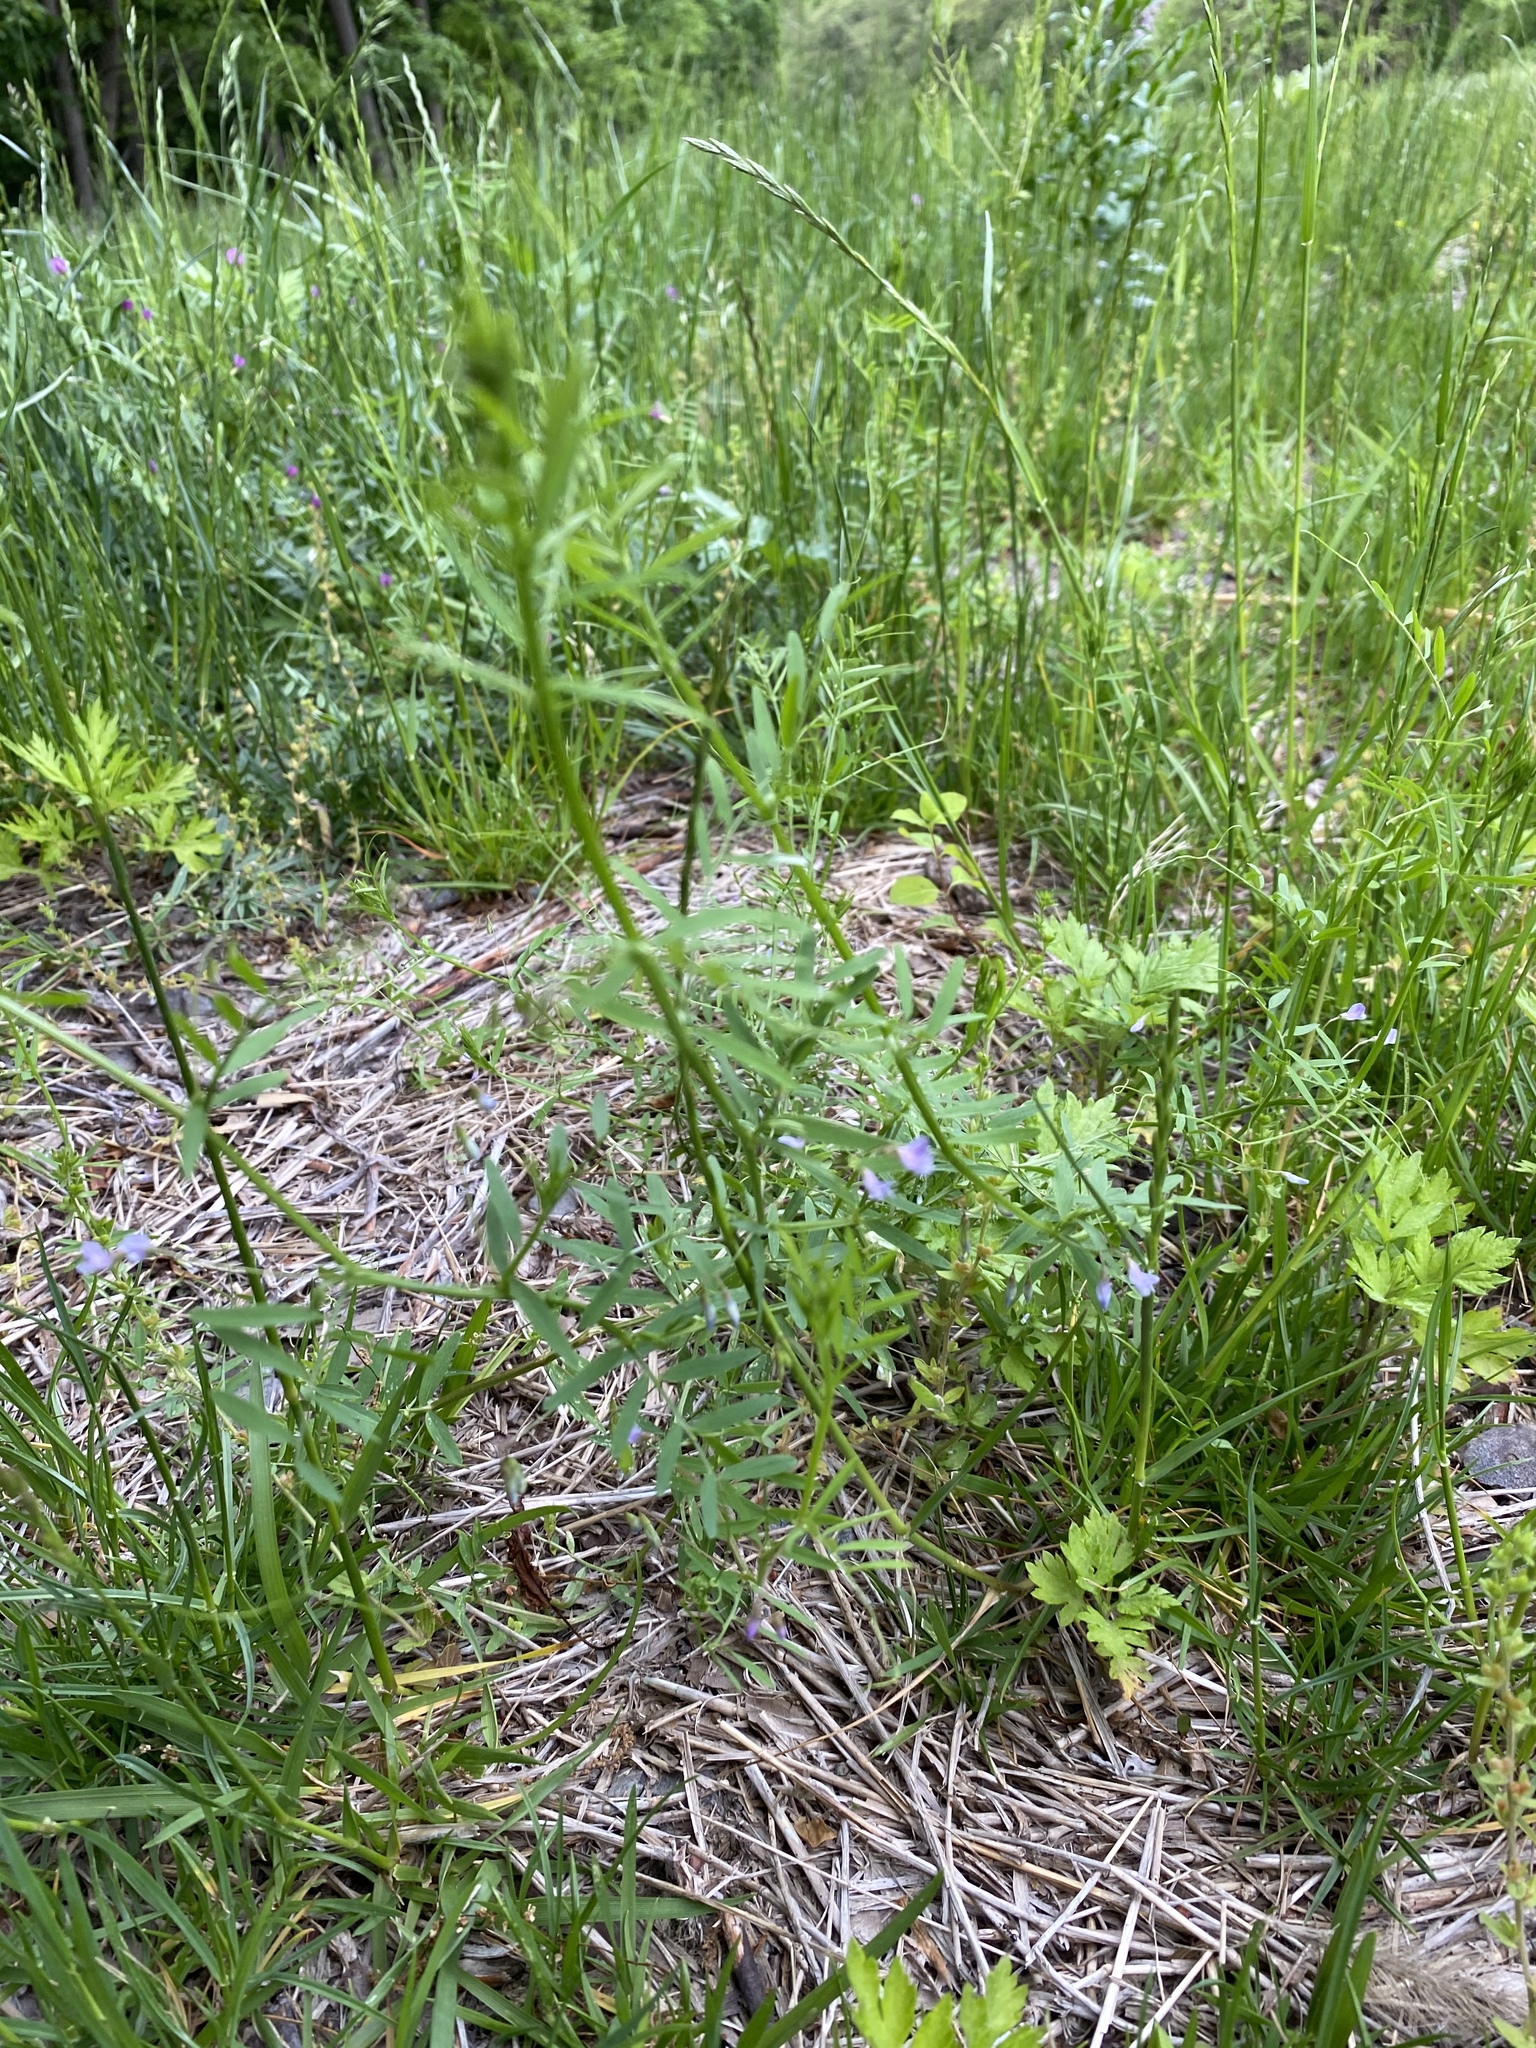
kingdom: Plantae
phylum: Tracheophyta
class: Magnoliopsida
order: Fabales
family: Fabaceae
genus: Vicia
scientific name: Vicia tetrasperma
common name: Smooth tare
